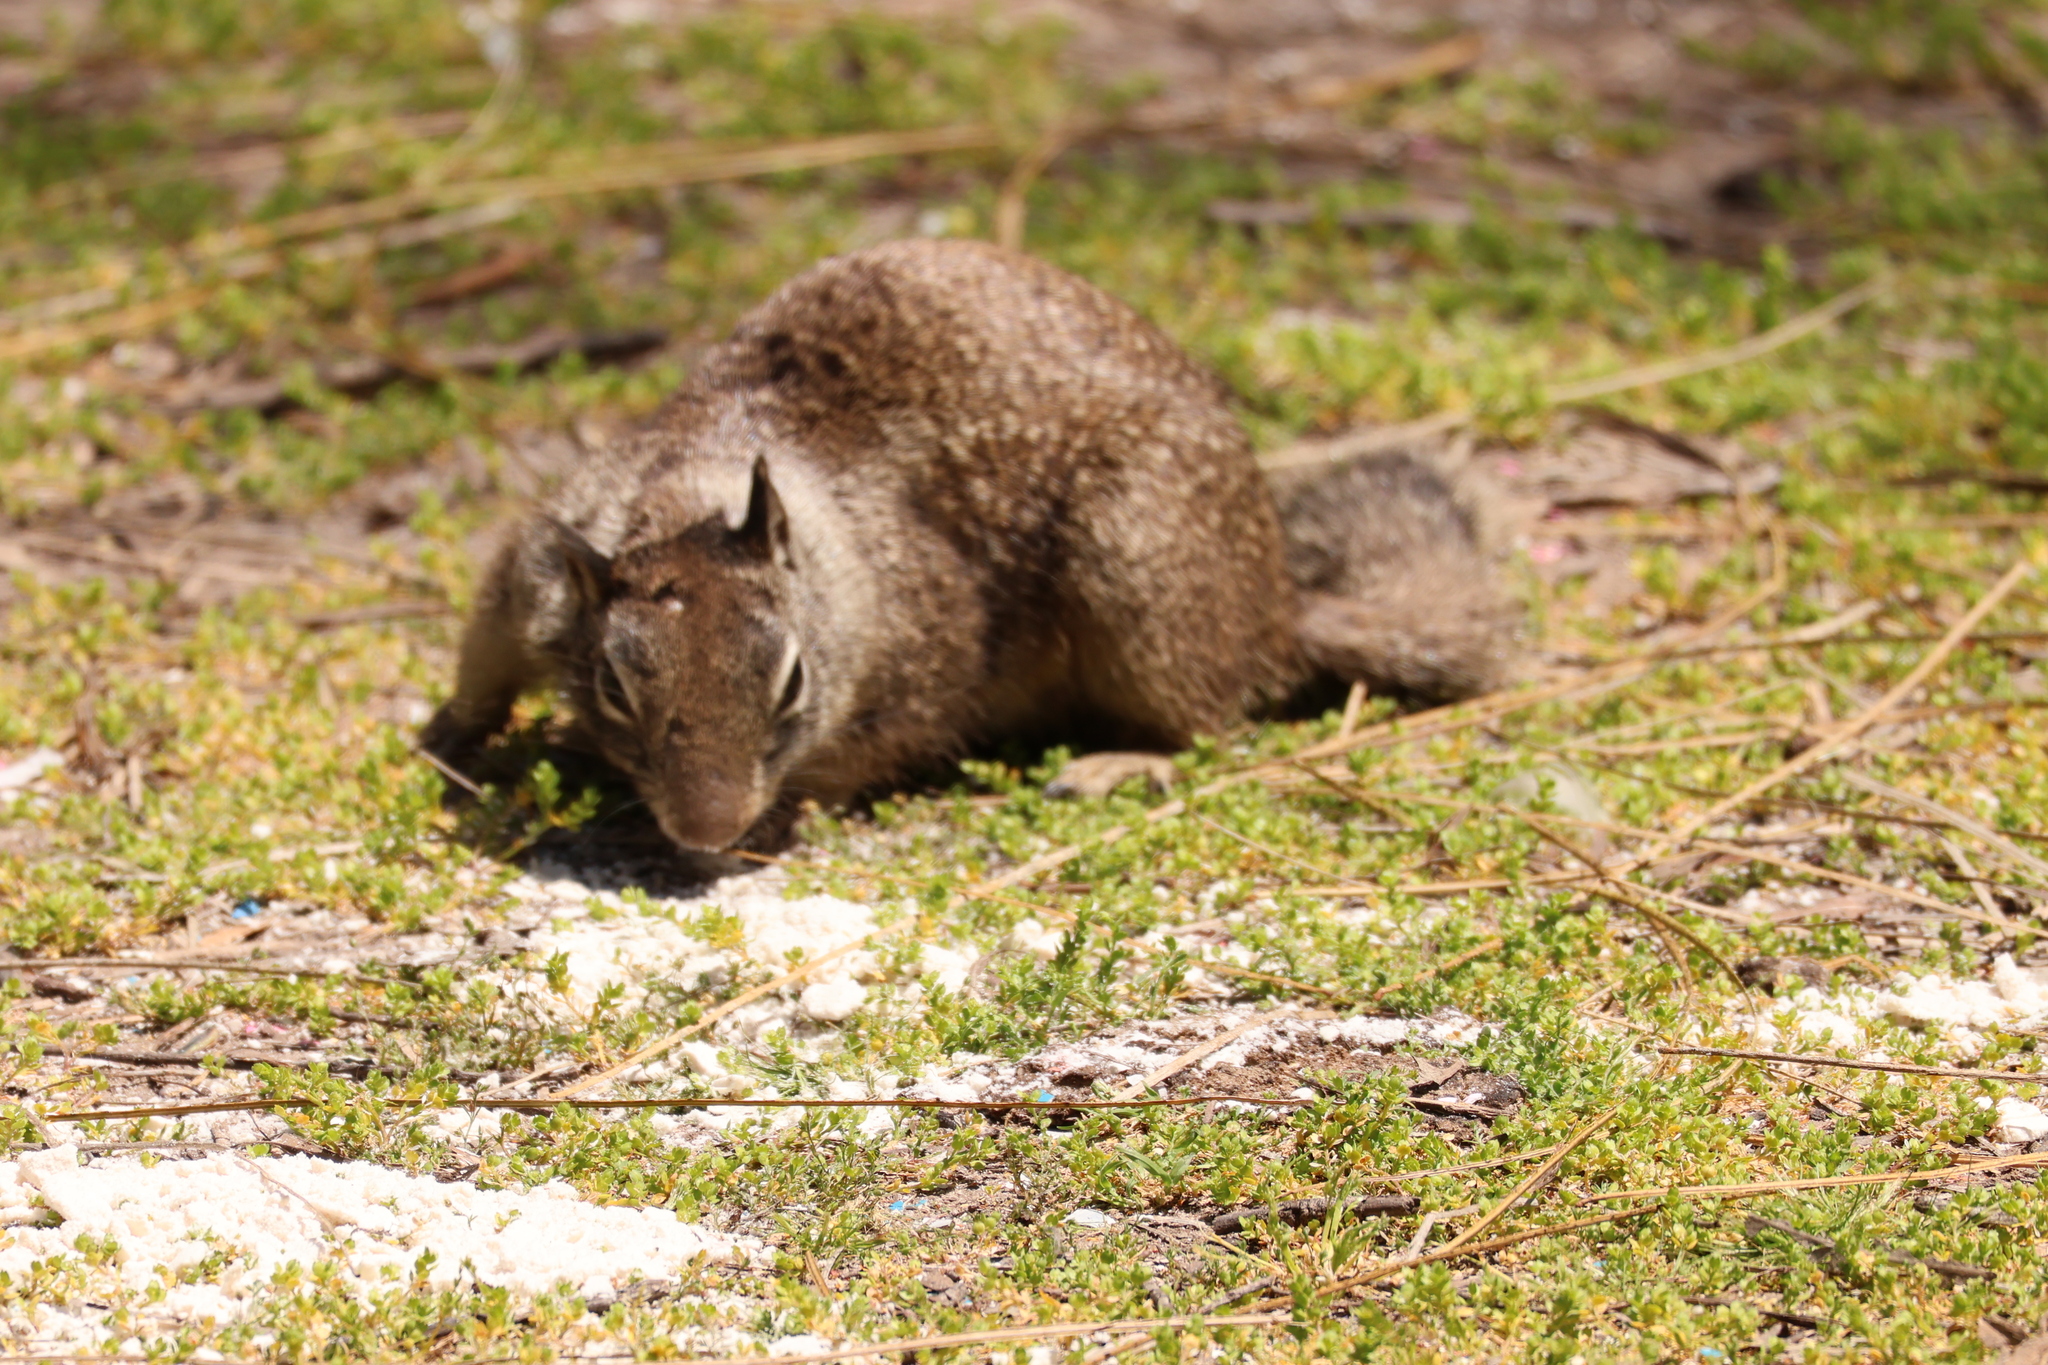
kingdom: Animalia
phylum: Chordata
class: Mammalia
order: Rodentia
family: Sciuridae
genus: Otospermophilus
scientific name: Otospermophilus beecheyi
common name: California ground squirrel
